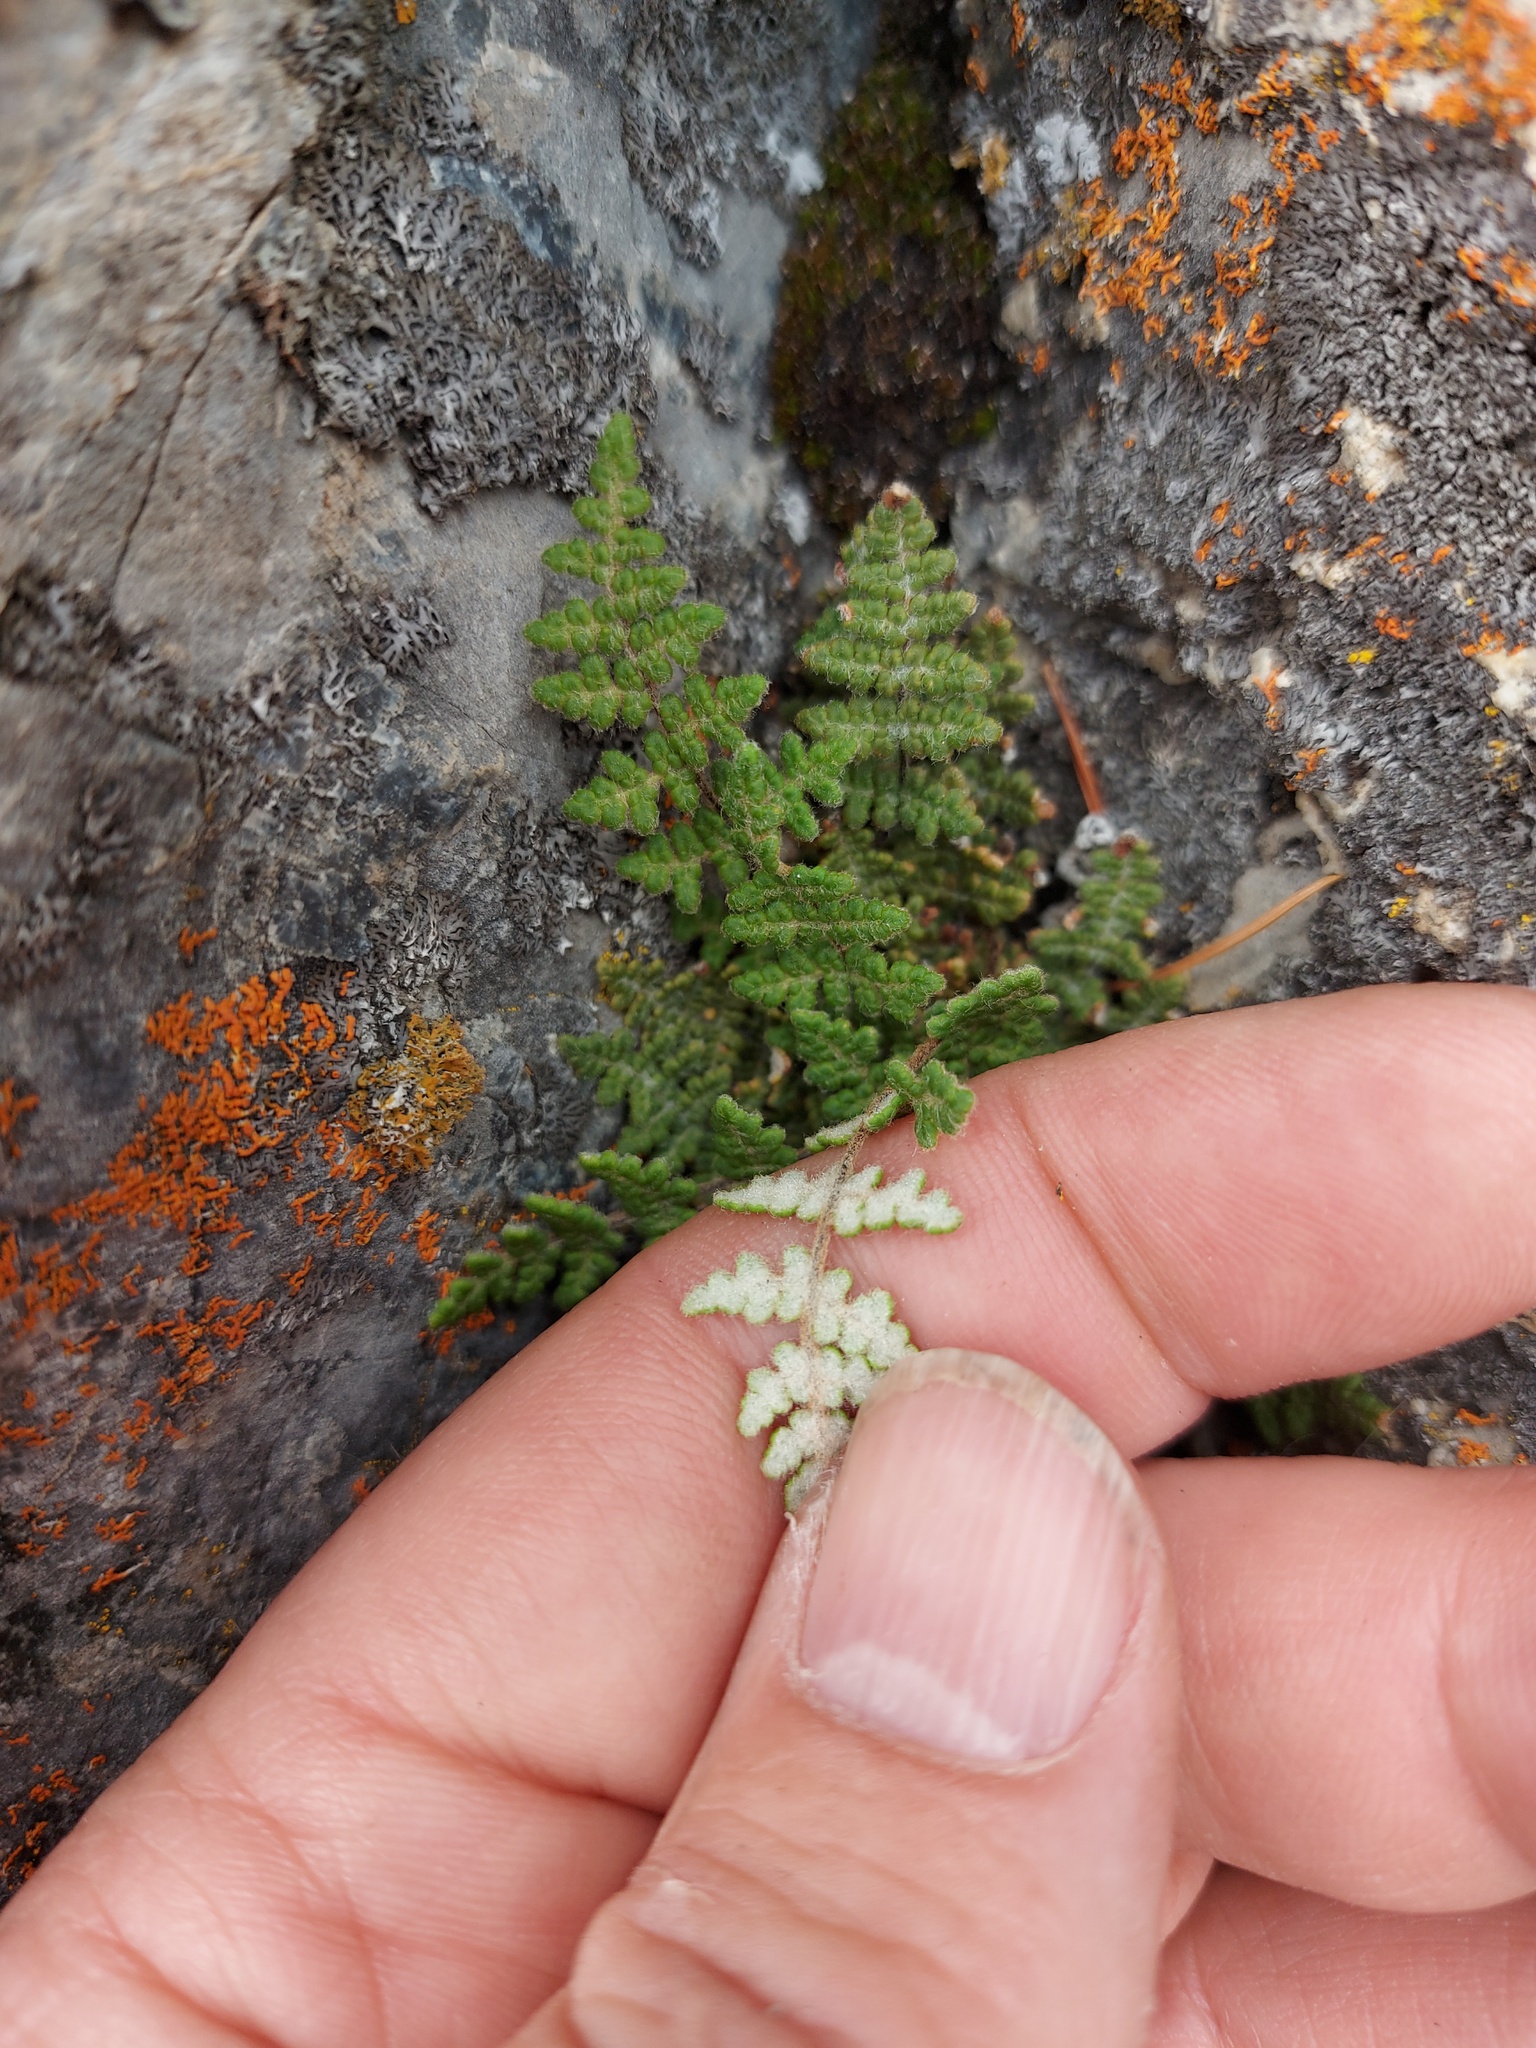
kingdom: Plantae
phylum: Tracheophyta
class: Polypodiopsida
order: Polypodiales
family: Pteridaceae
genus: Myriopteris
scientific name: Myriopteris gracilis
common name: Fee's lip fern
